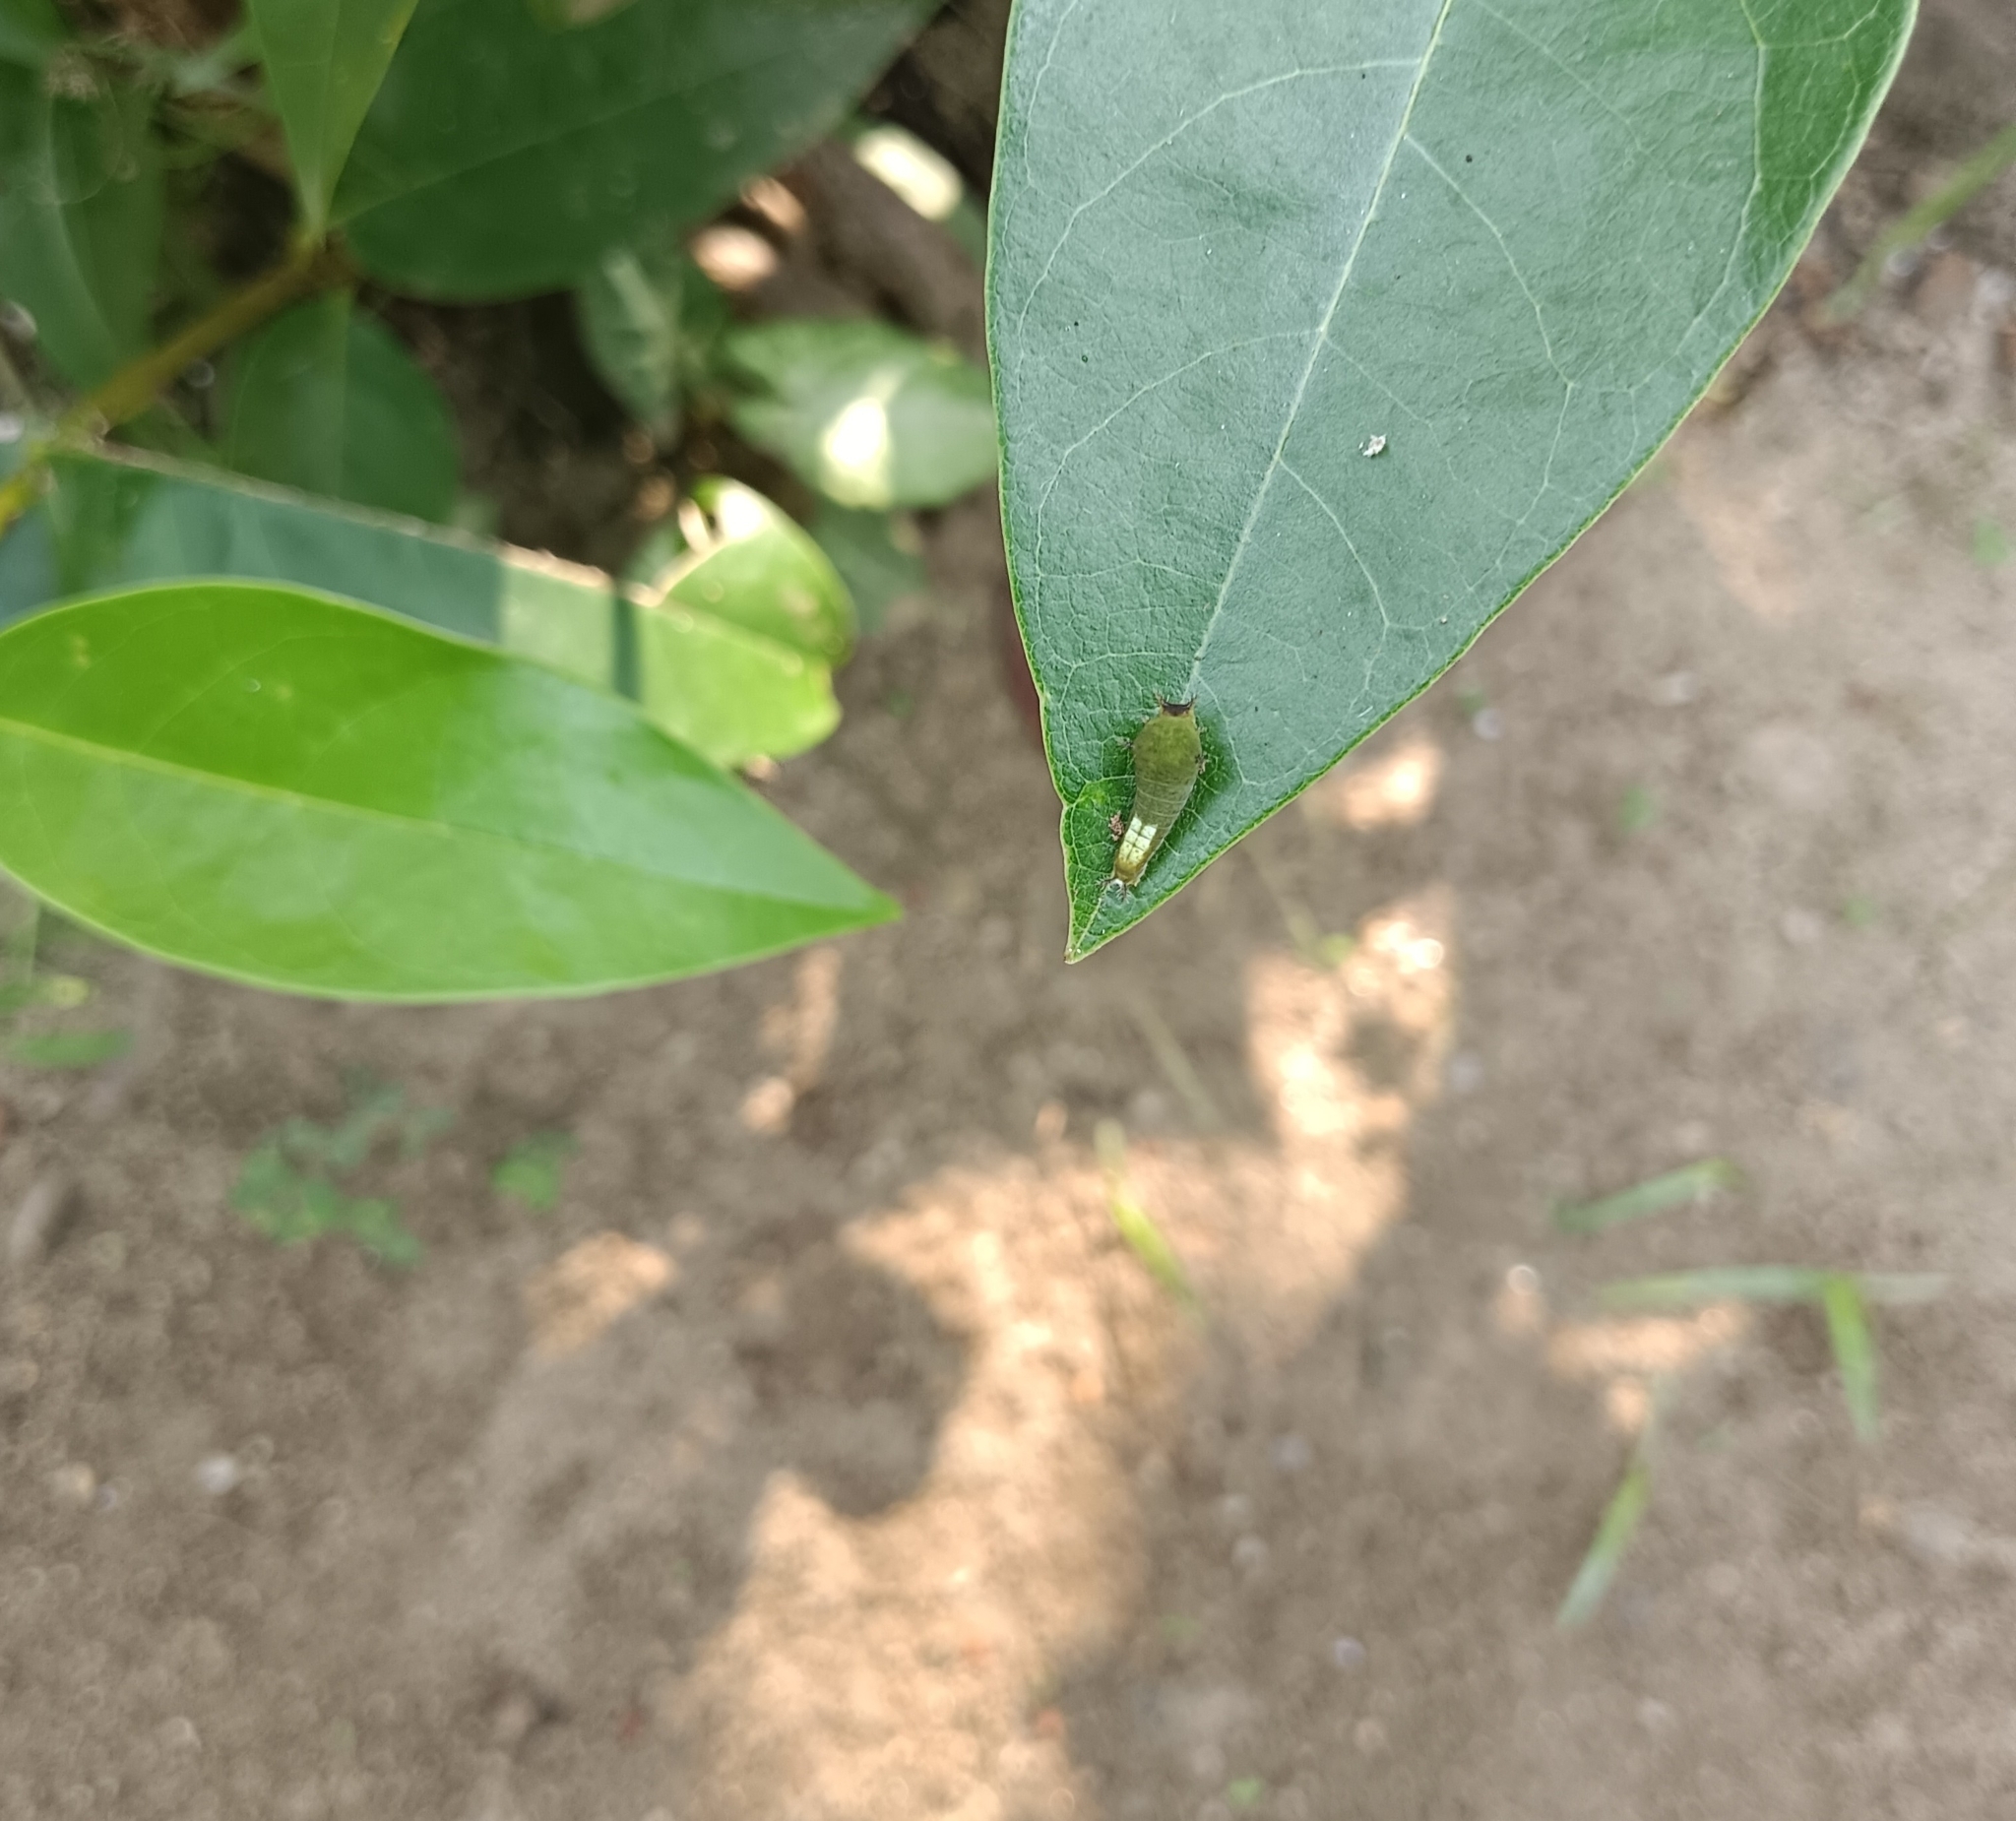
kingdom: Animalia
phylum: Arthropoda
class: Insecta
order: Lepidoptera
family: Papilionidae
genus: Graphium
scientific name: Graphium agamemnon
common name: Tailed jay
